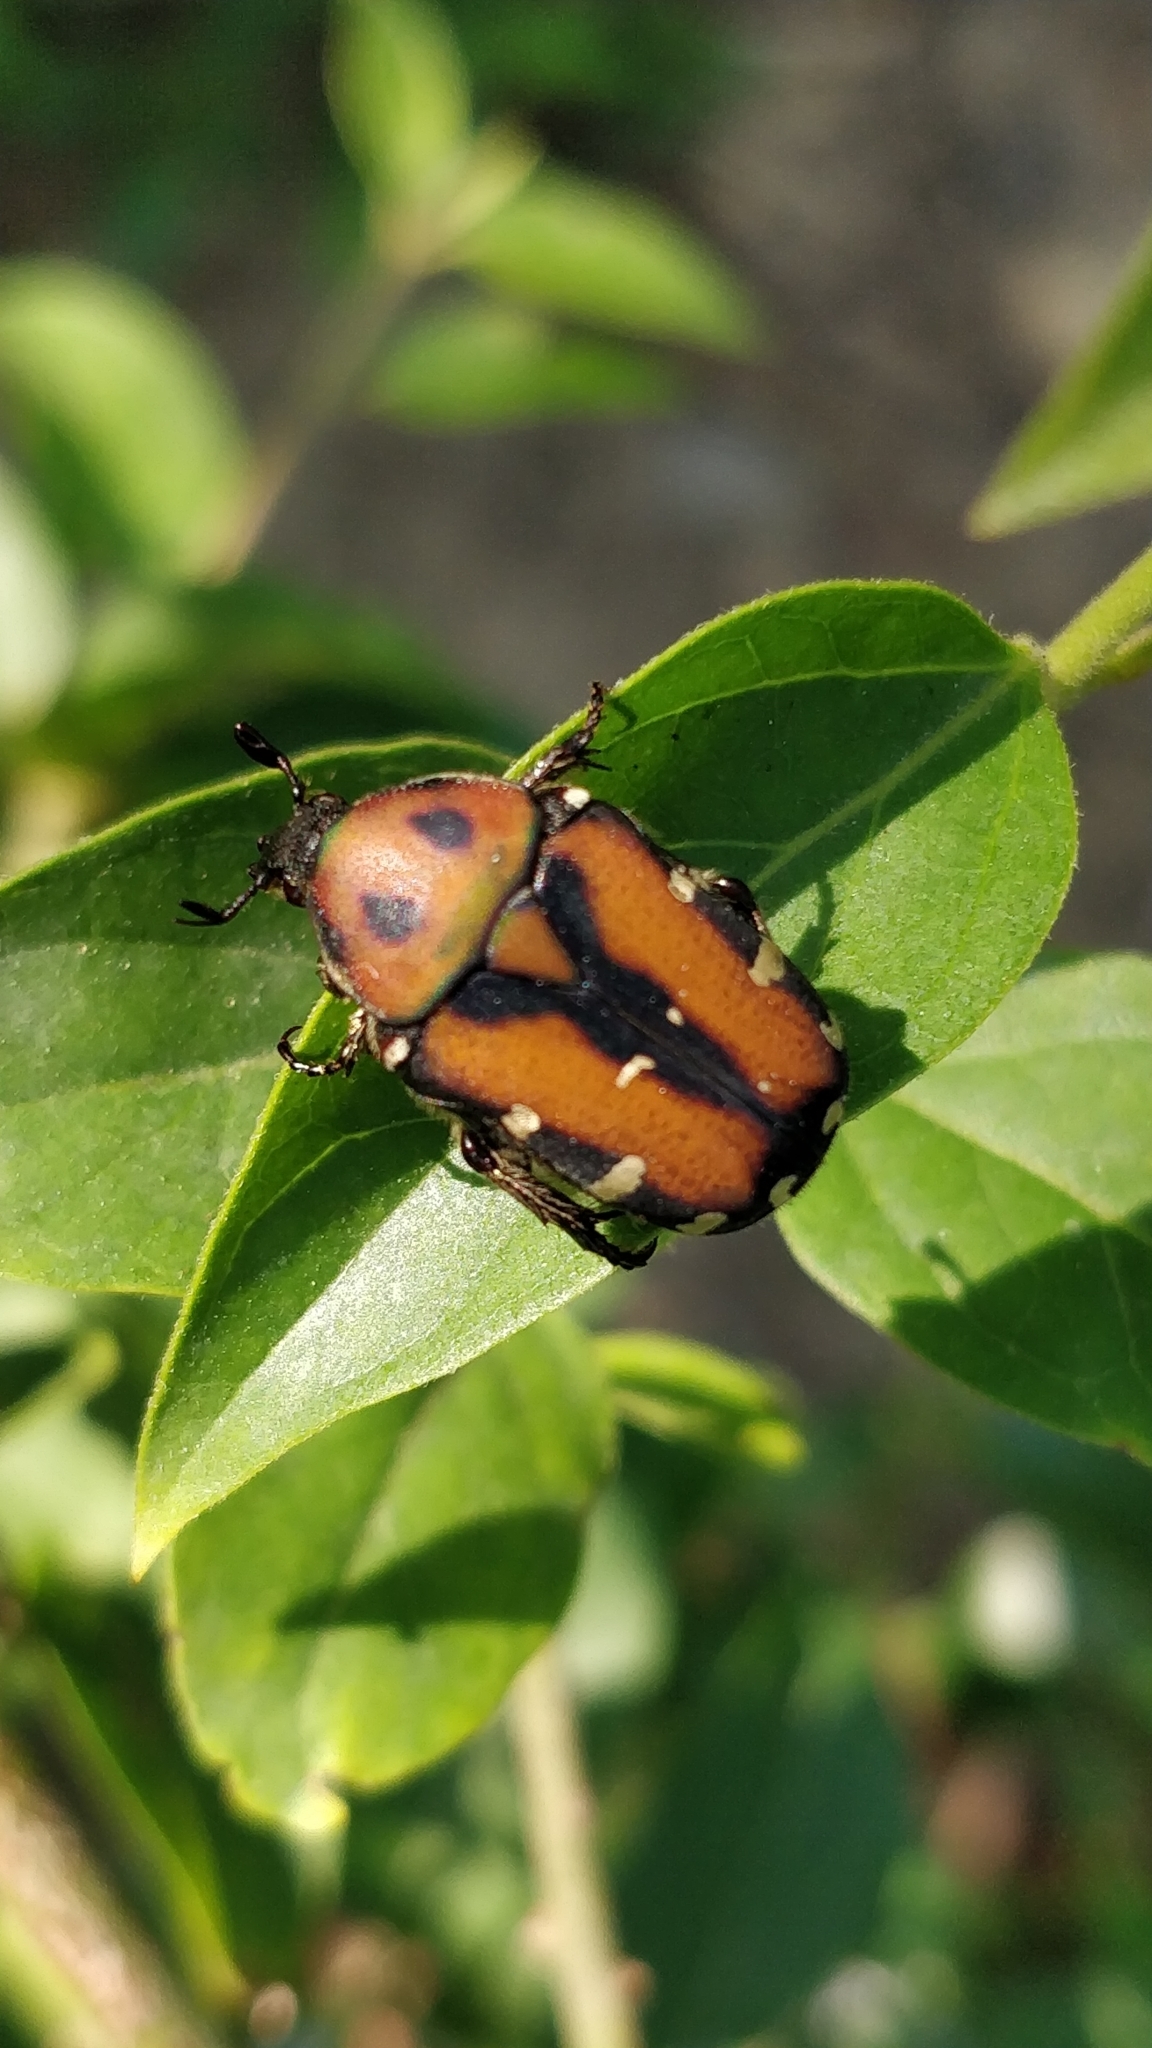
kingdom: Animalia
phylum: Arthropoda
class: Insecta
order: Coleoptera
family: Scarabaeidae
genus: Gametis
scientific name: Gametis versicolor
